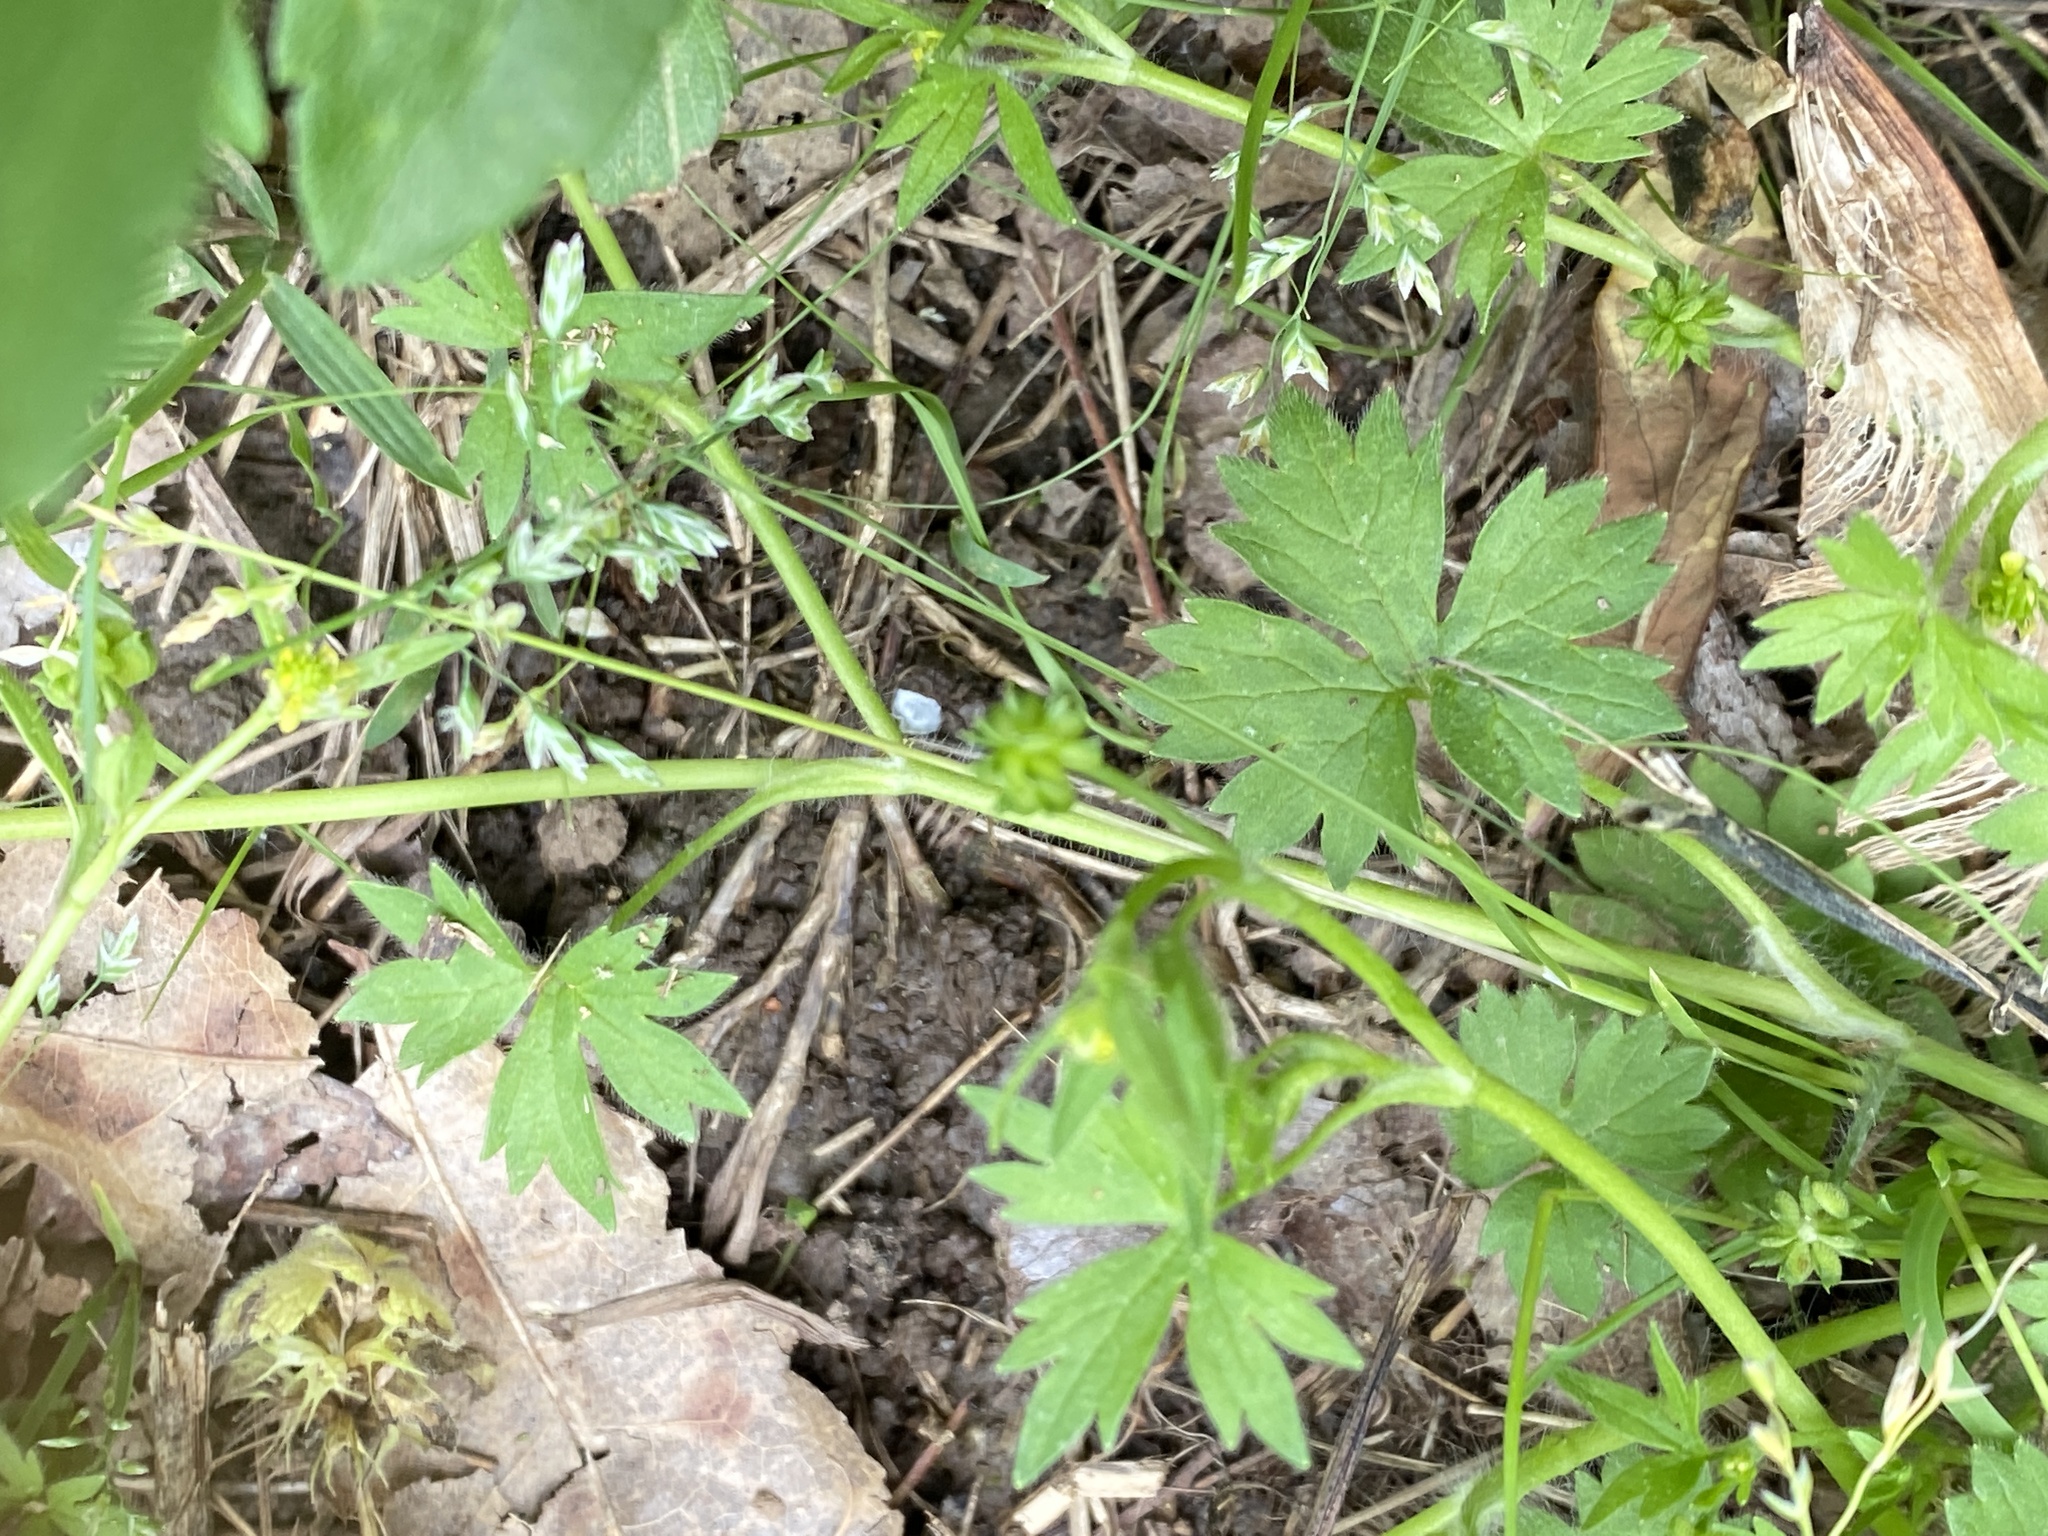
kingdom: Plantae
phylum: Tracheophyta
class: Magnoliopsida
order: Ranunculales
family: Ranunculaceae
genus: Ranunculus
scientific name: Ranunculus parviflorus
